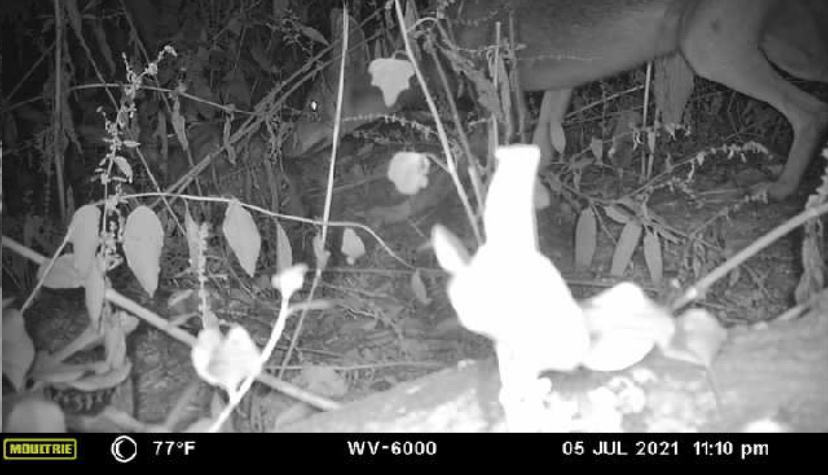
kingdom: Animalia
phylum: Chordata
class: Mammalia
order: Carnivora
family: Canidae
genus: Canis
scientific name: Canis latrans
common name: Coyote
